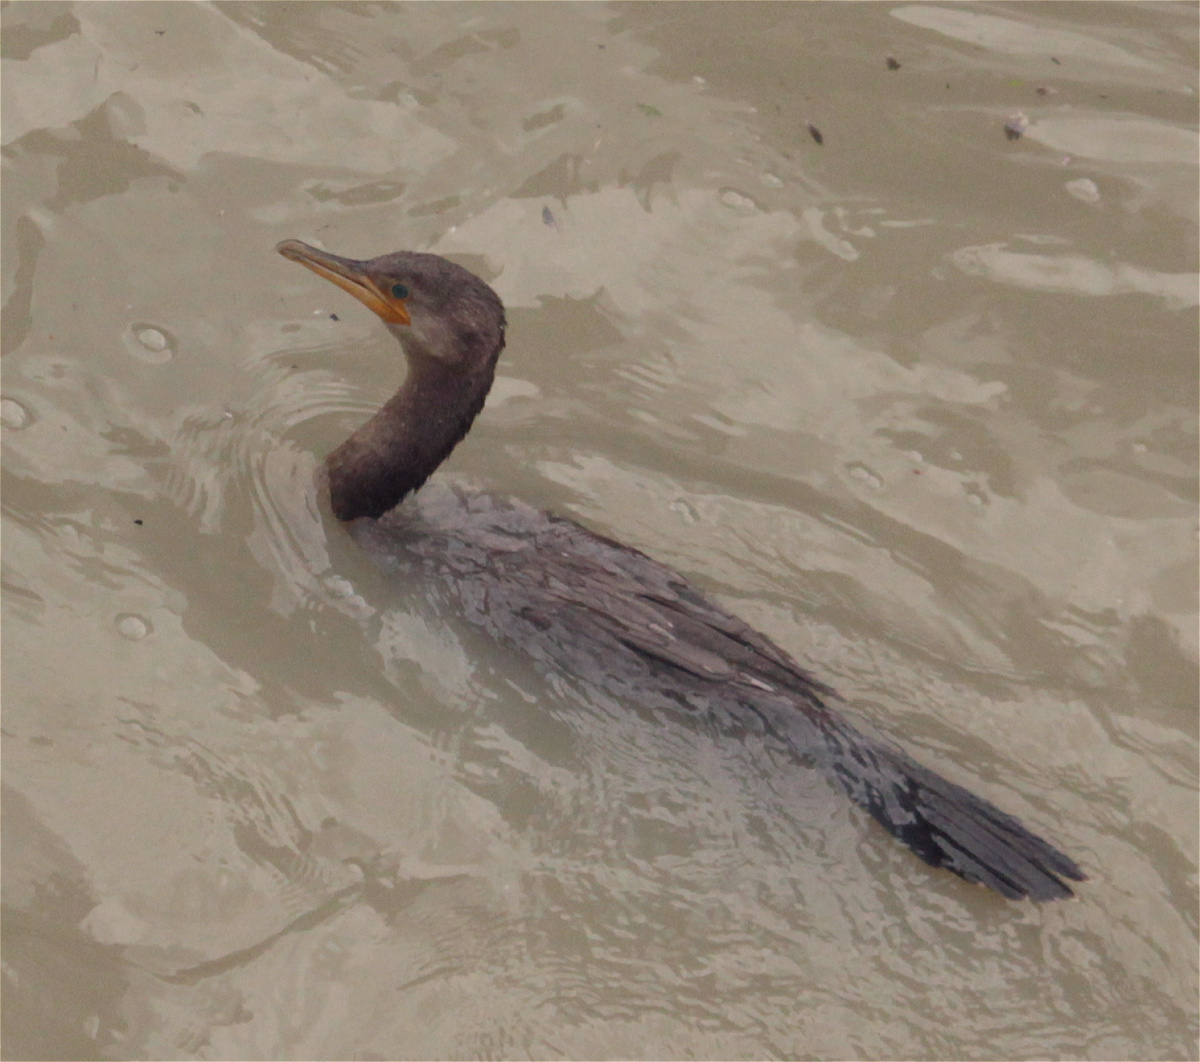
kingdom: Animalia
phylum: Chordata
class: Aves
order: Suliformes
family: Phalacrocoracidae
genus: Phalacrocorax
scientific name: Phalacrocorax brasilianus
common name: Neotropic cormorant
